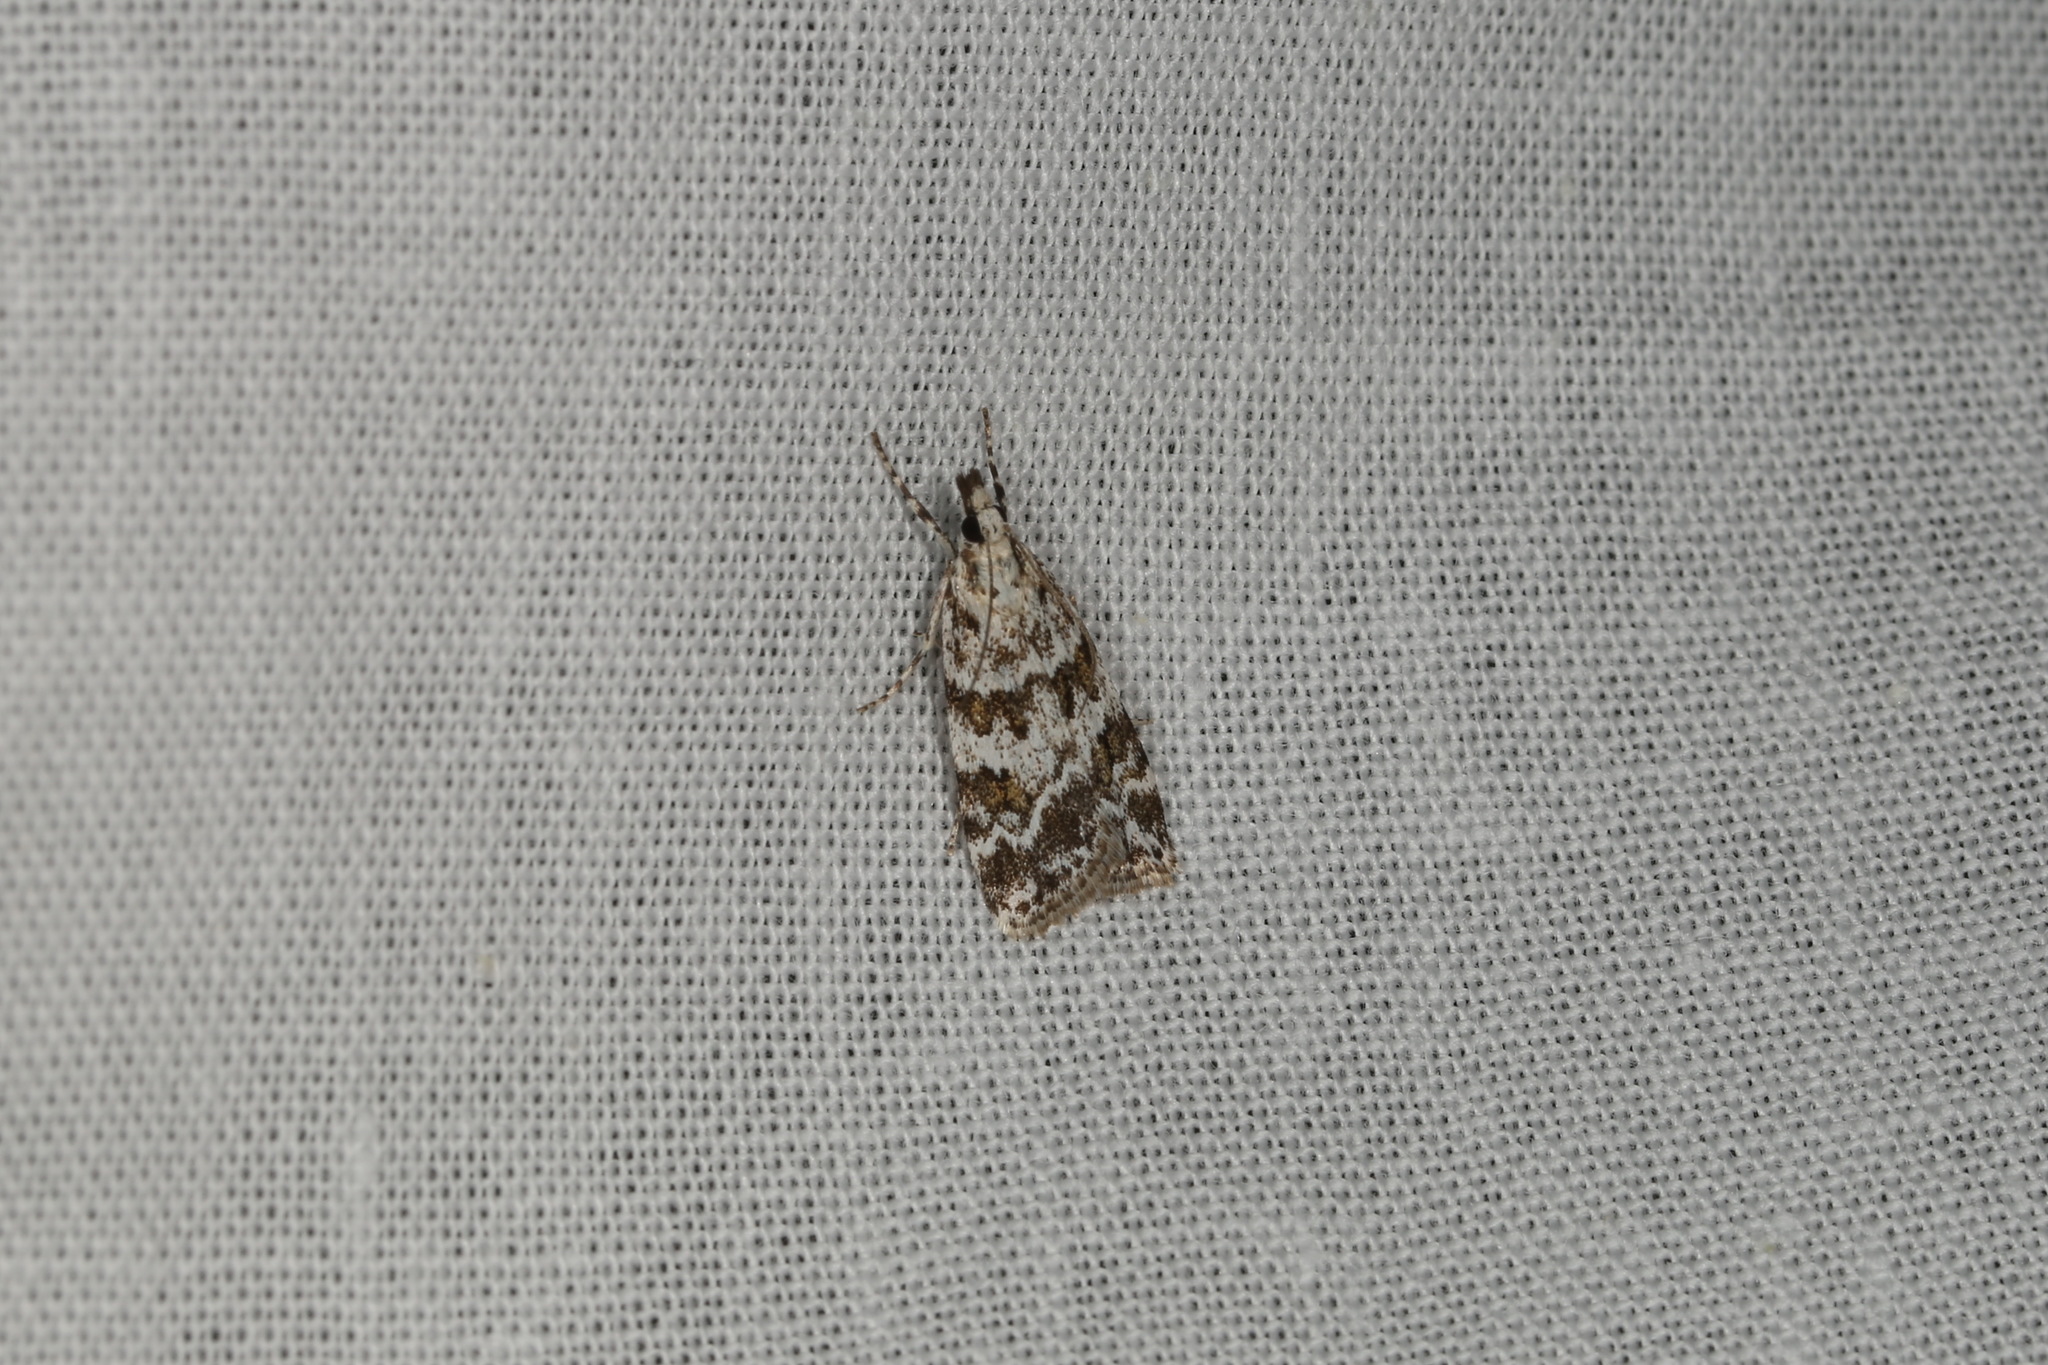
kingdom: Animalia
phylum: Arthropoda
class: Insecta
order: Lepidoptera
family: Crambidae
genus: Scoparia
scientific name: Scoparia pyralella
